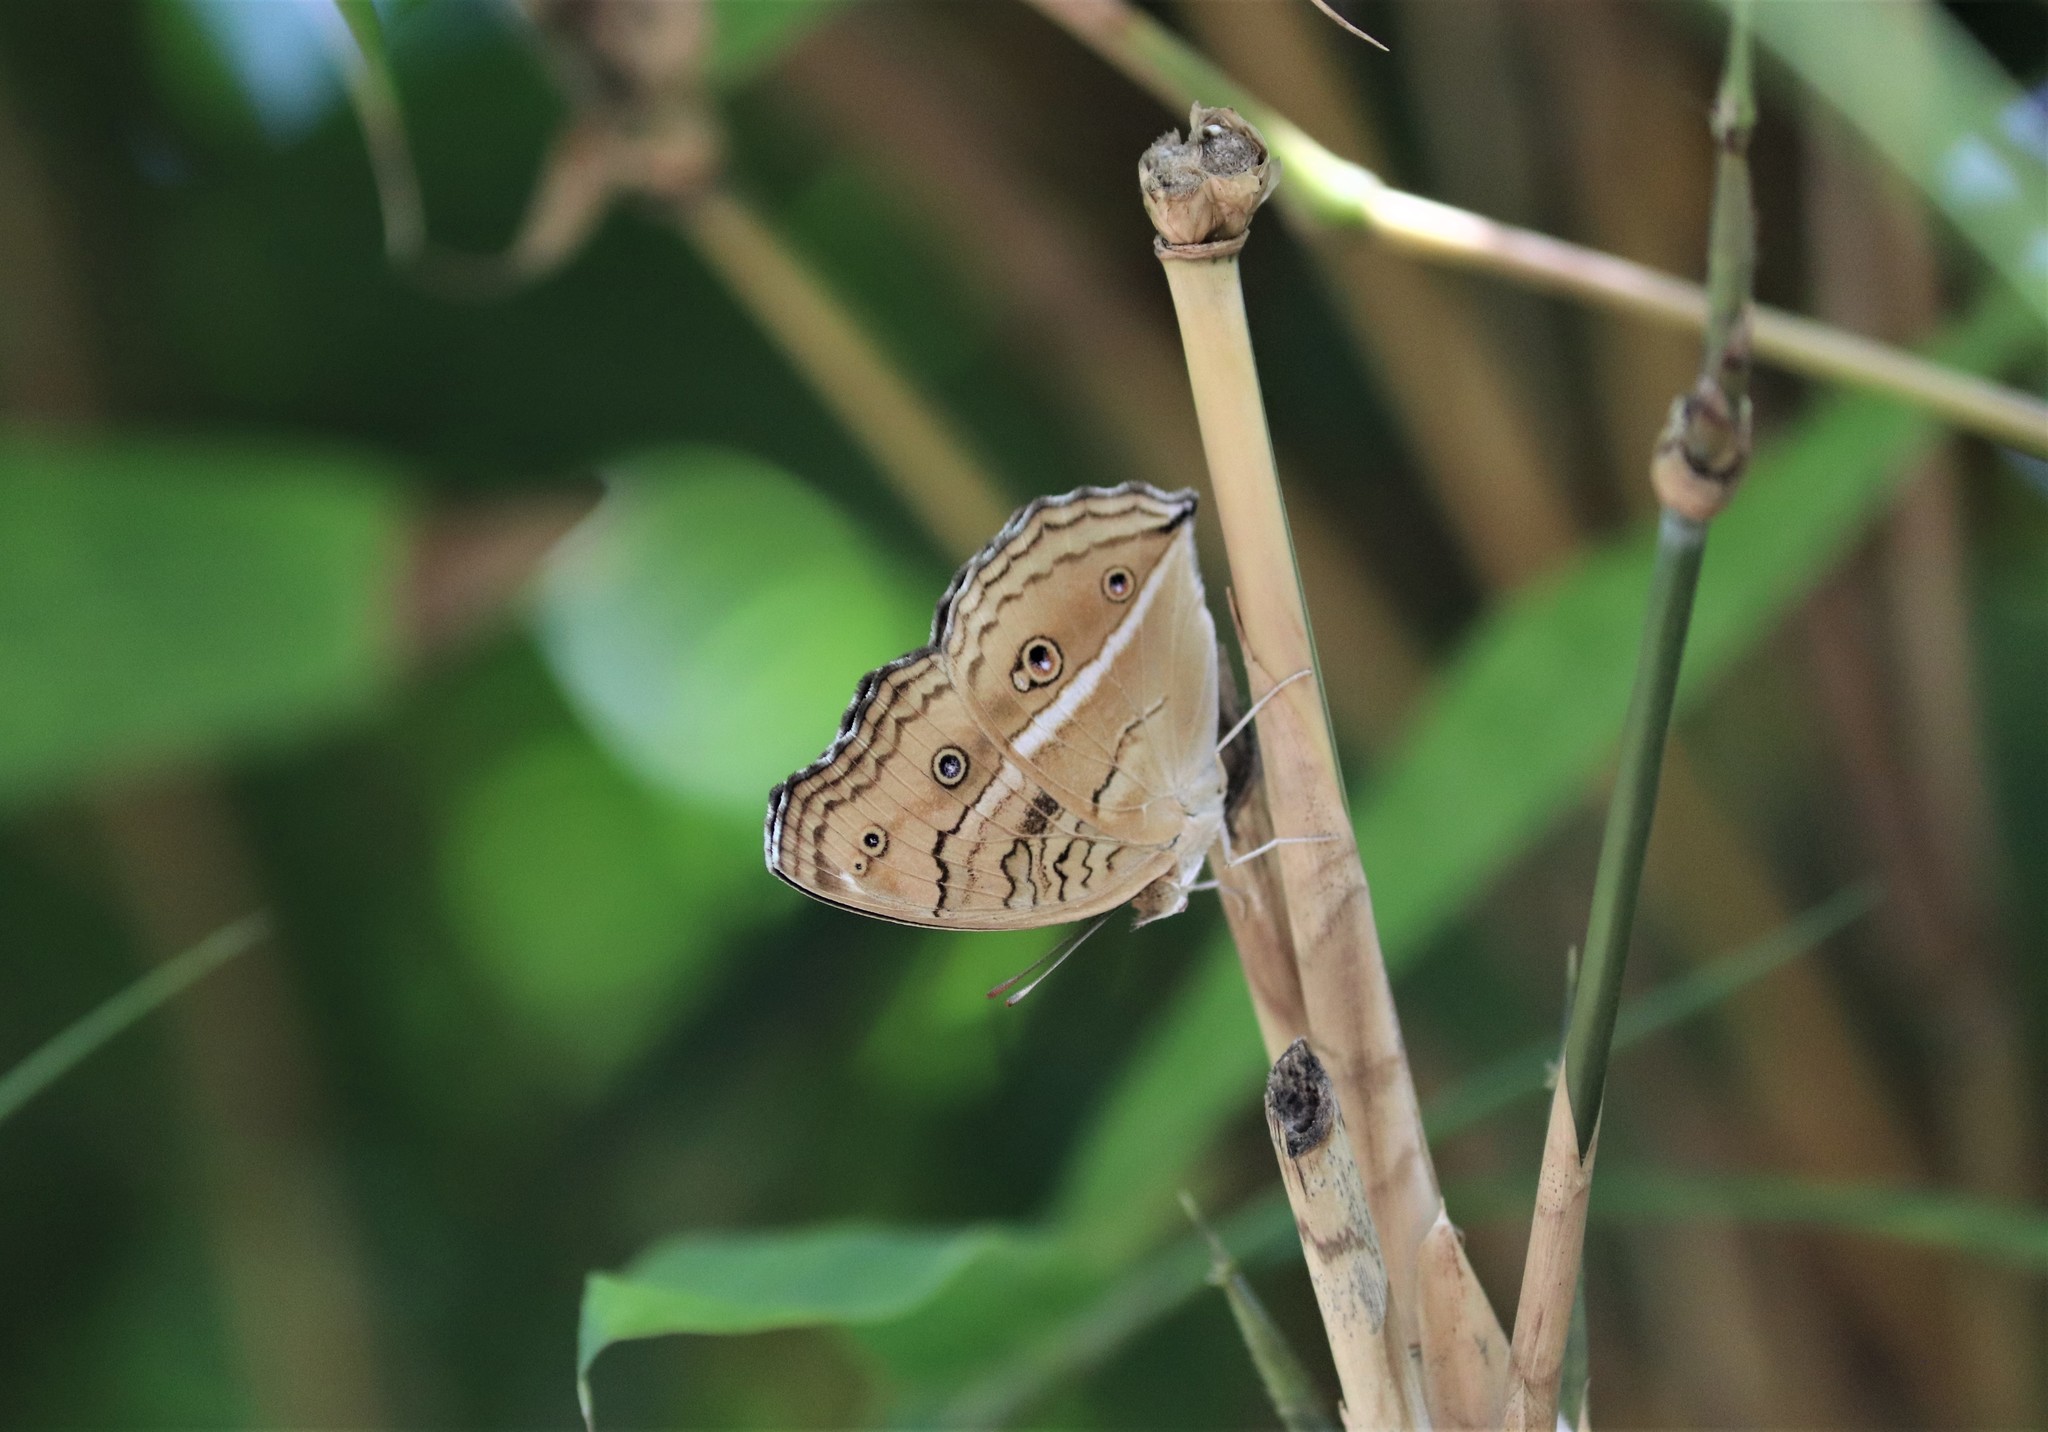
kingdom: Animalia
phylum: Arthropoda
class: Insecta
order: Lepidoptera
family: Nymphalidae
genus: Junonia
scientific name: Junonia almana
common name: Peacock pansy
